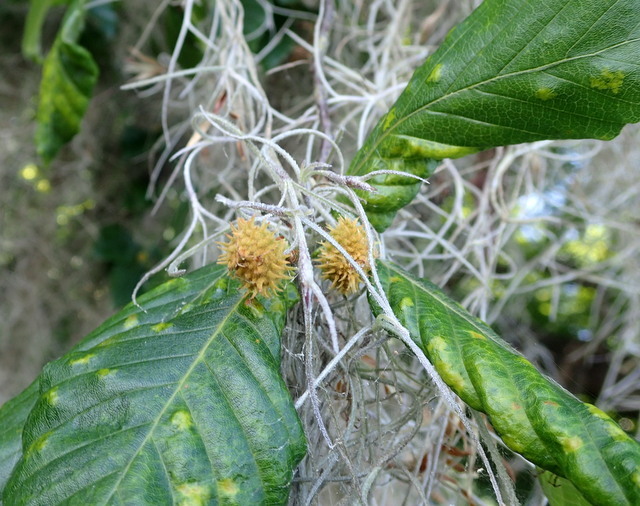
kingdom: Plantae
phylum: Tracheophyta
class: Magnoliopsida
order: Fagales
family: Fagaceae
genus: Fagus
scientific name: Fagus grandifolia
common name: American beech
